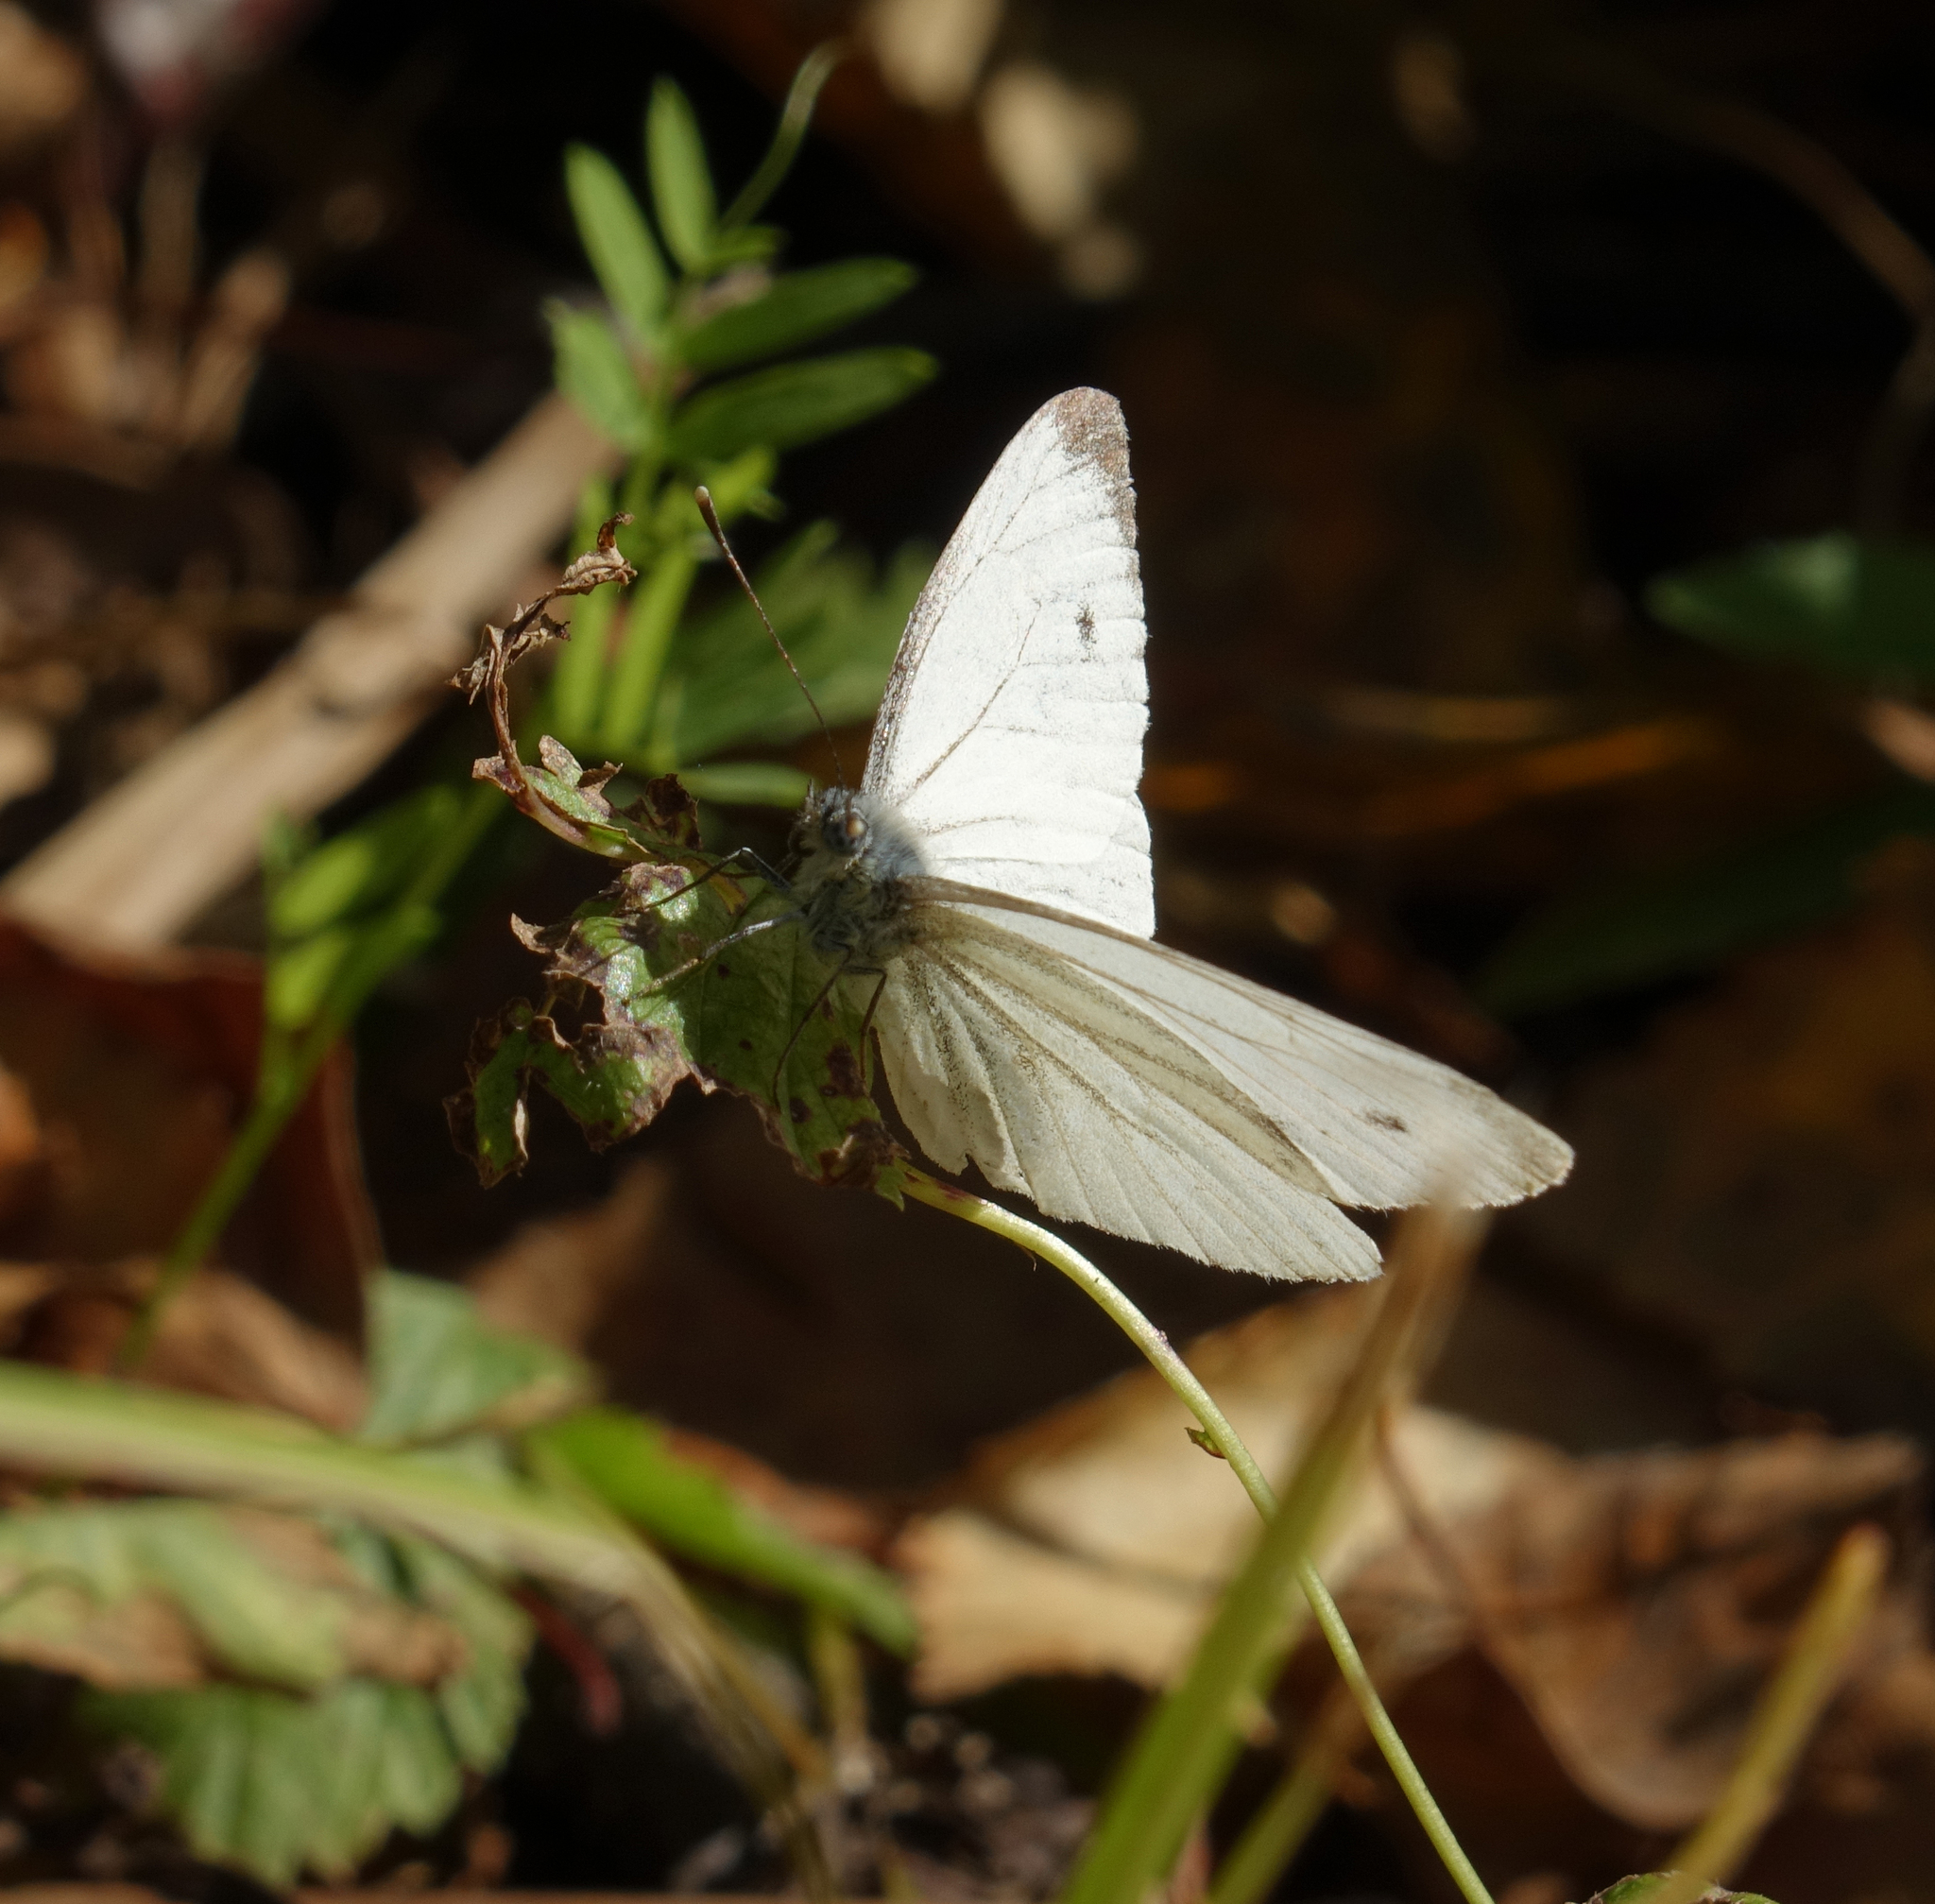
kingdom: Animalia
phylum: Arthropoda
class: Insecta
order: Lepidoptera
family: Pieridae
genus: Pieris
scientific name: Pieris napi
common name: Green-veined white
